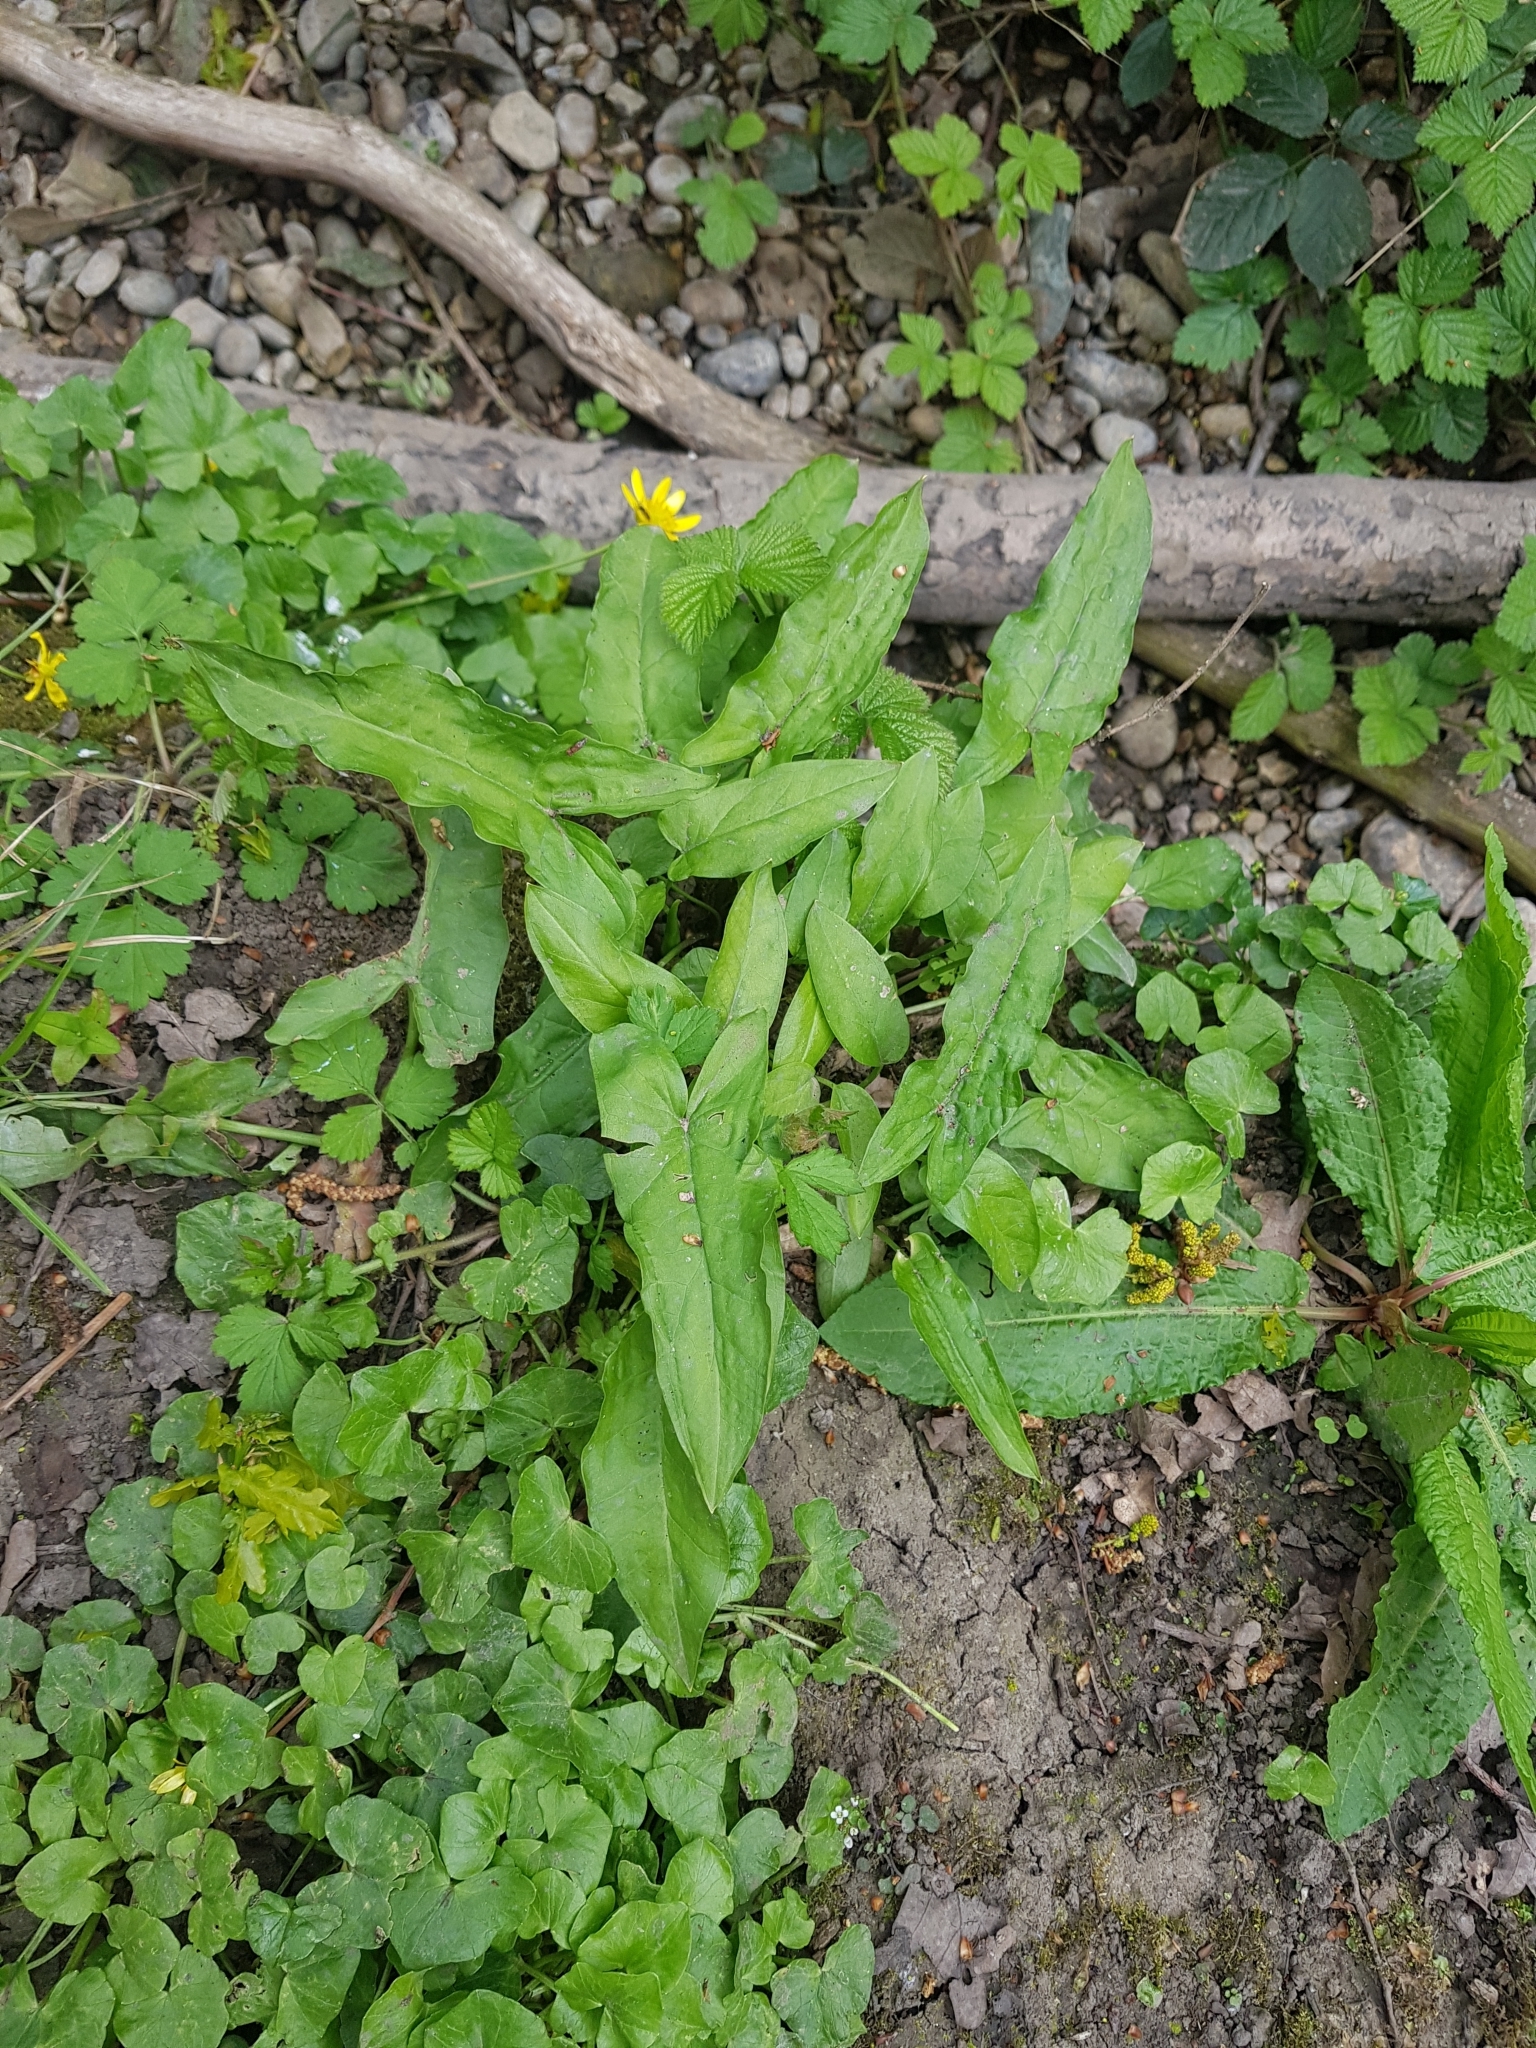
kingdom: Plantae
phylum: Tracheophyta
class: Liliopsida
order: Alismatales
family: Araceae
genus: Arum
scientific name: Arum maculatum
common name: Lords-and-ladies
